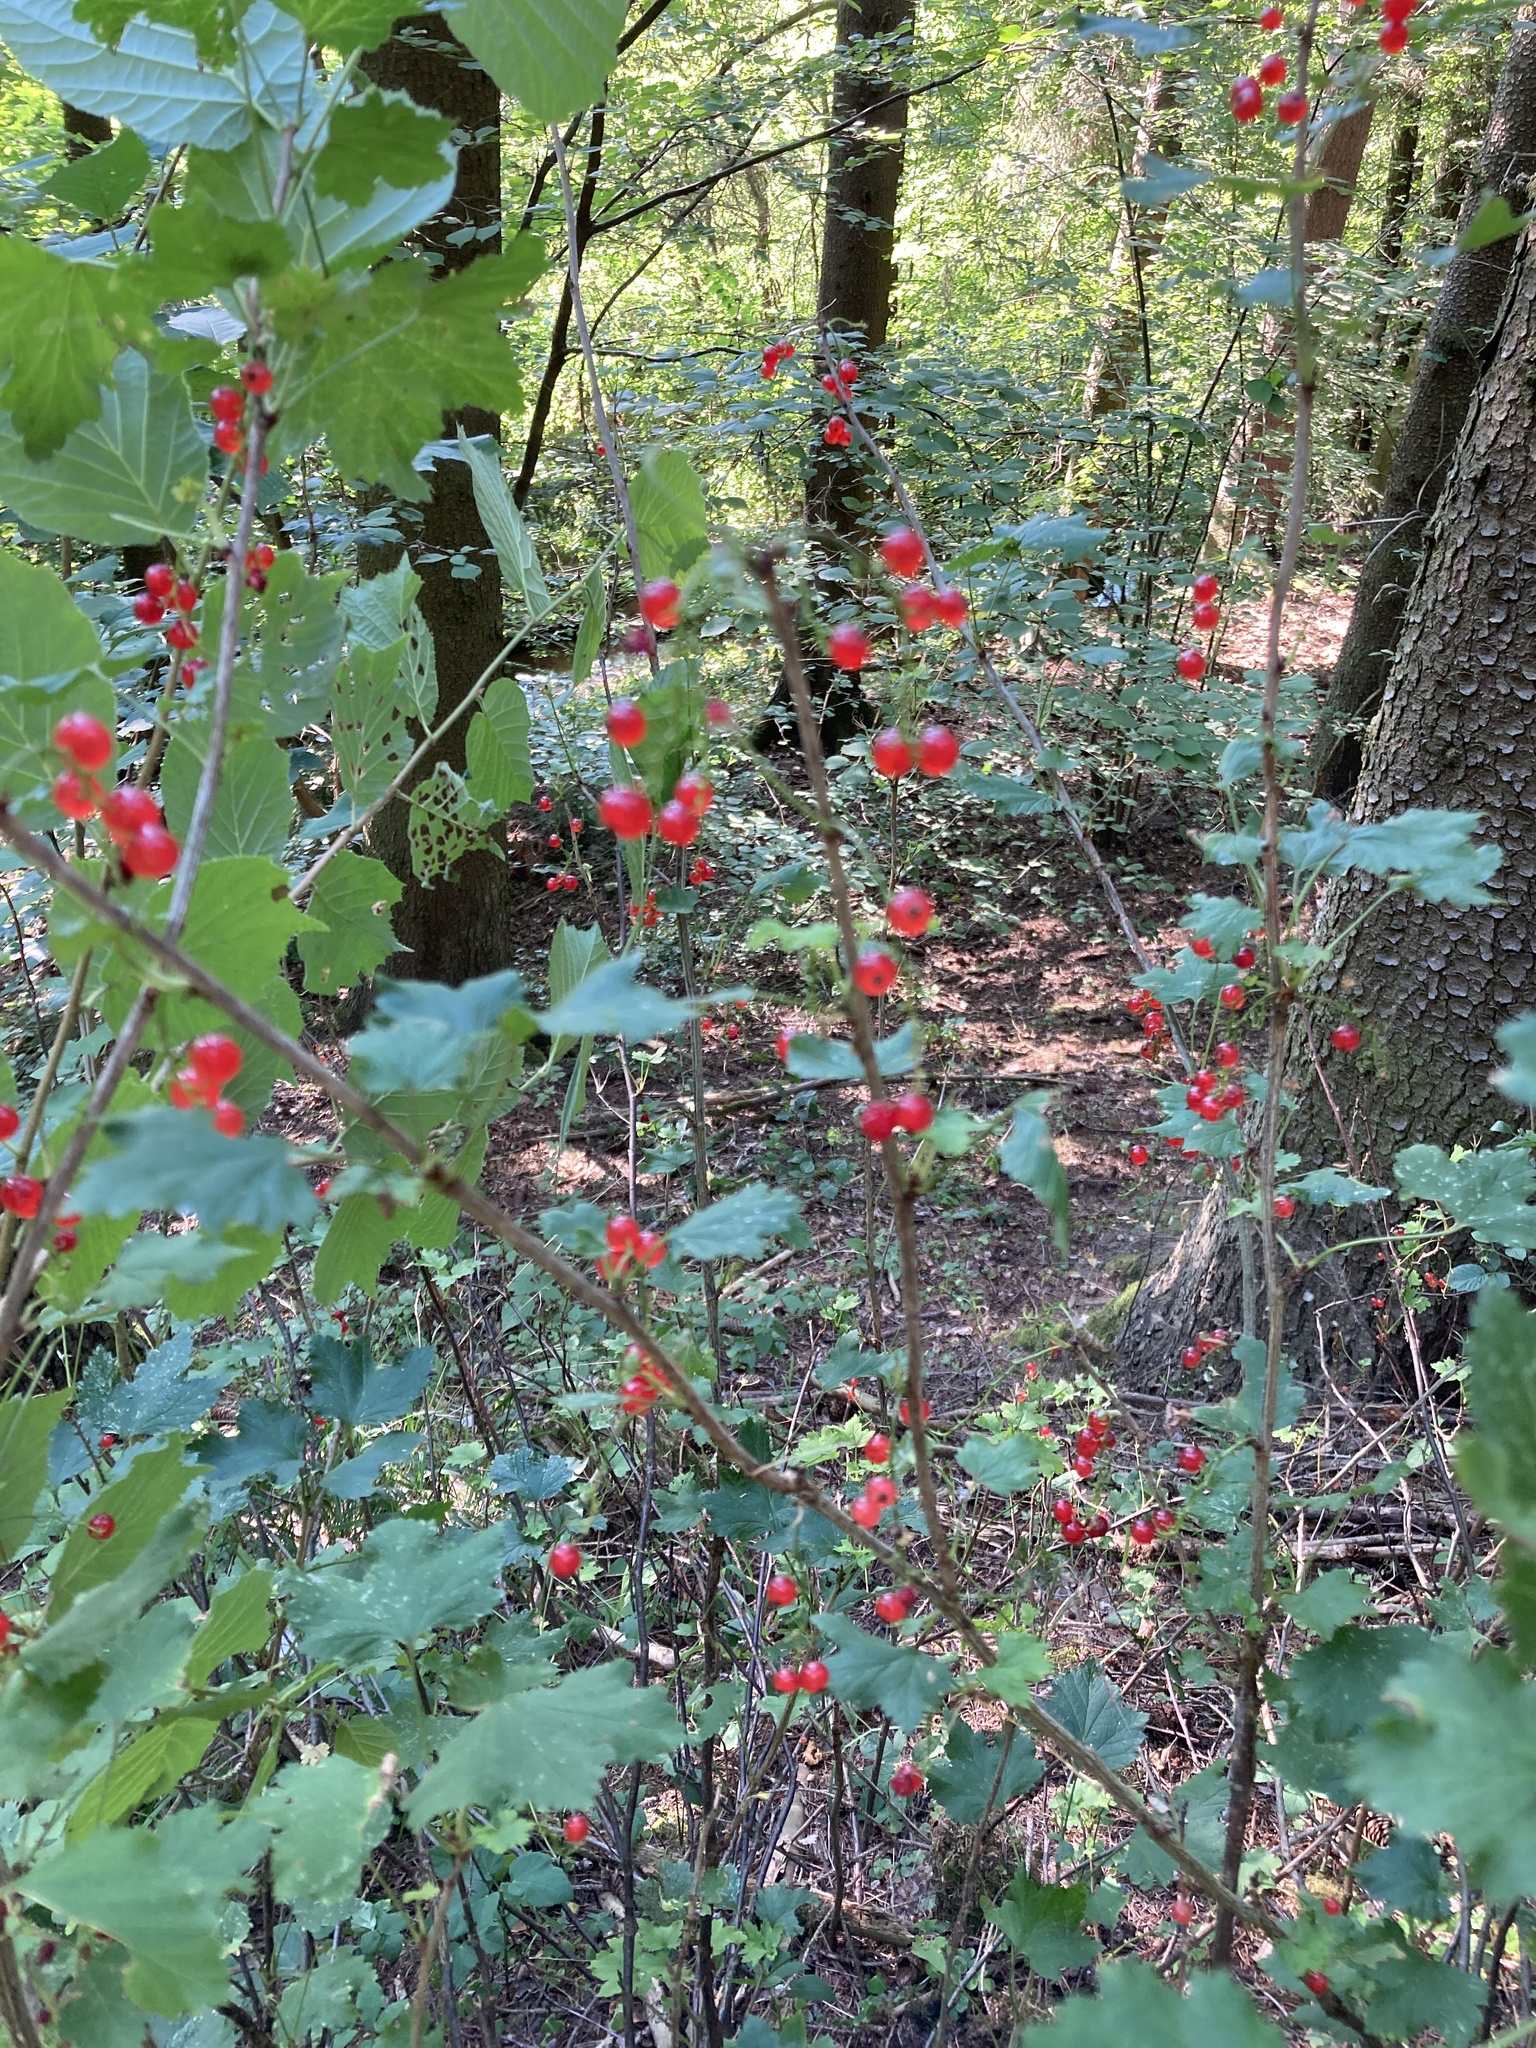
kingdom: Plantae
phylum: Tracheophyta
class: Magnoliopsida
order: Saxifragales
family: Grossulariaceae
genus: Ribes
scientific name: Ribes rubrum
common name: Red currant
